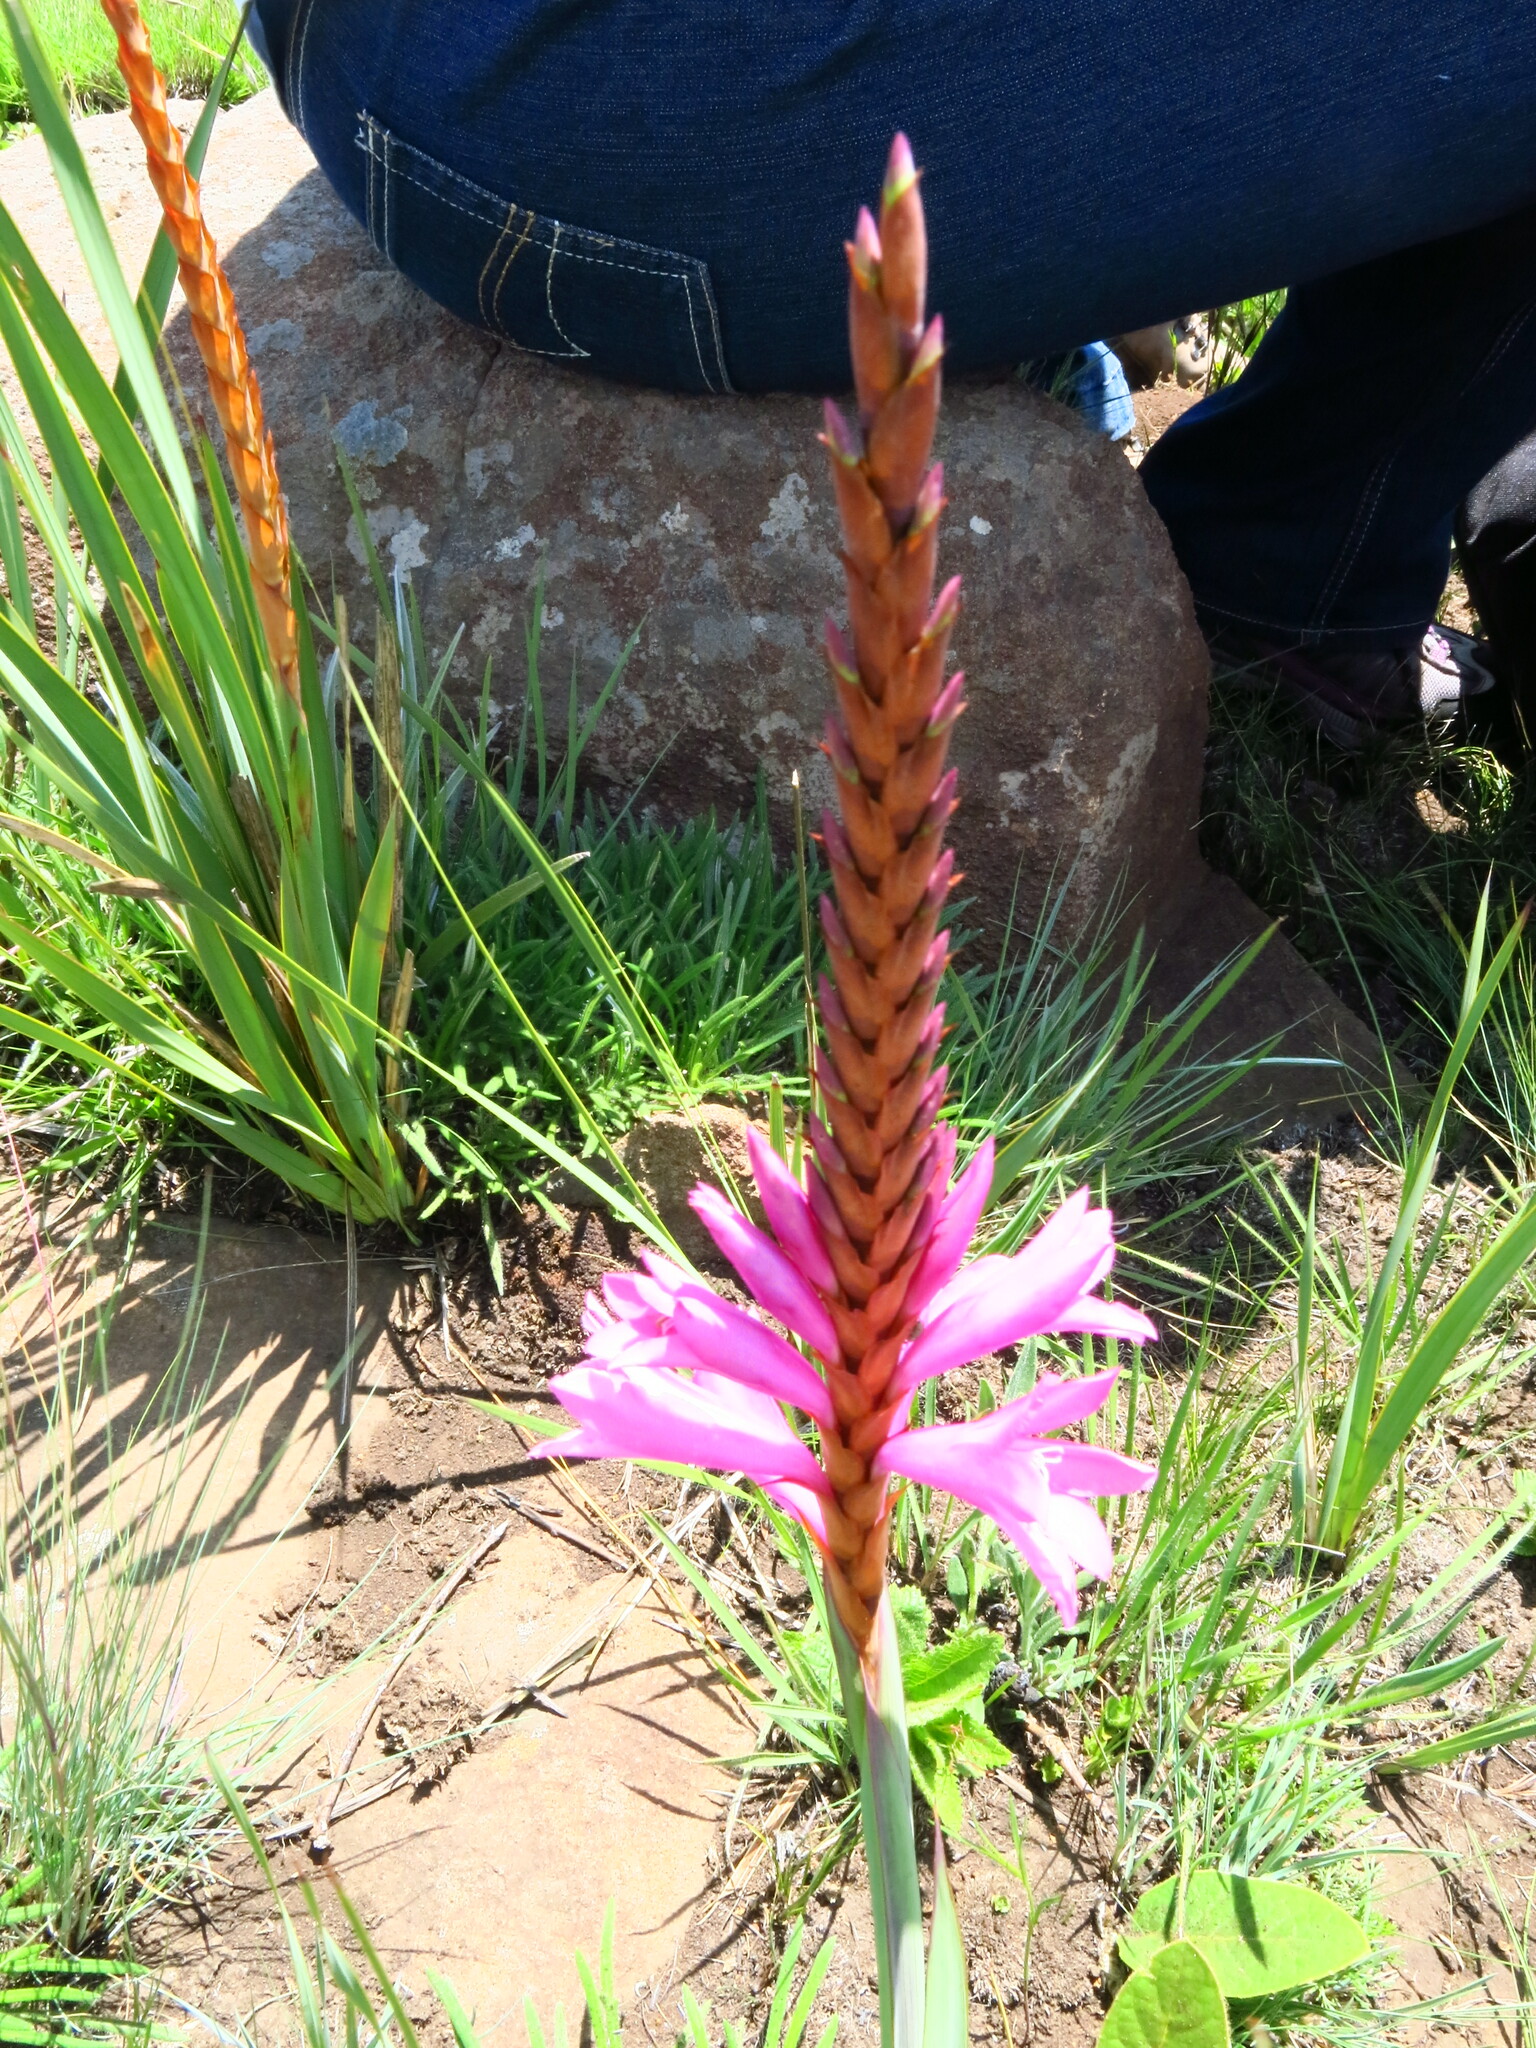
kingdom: Plantae
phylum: Tracheophyta
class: Liliopsida
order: Asparagales
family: Iridaceae
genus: Watsonia
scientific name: Watsonia lepida
